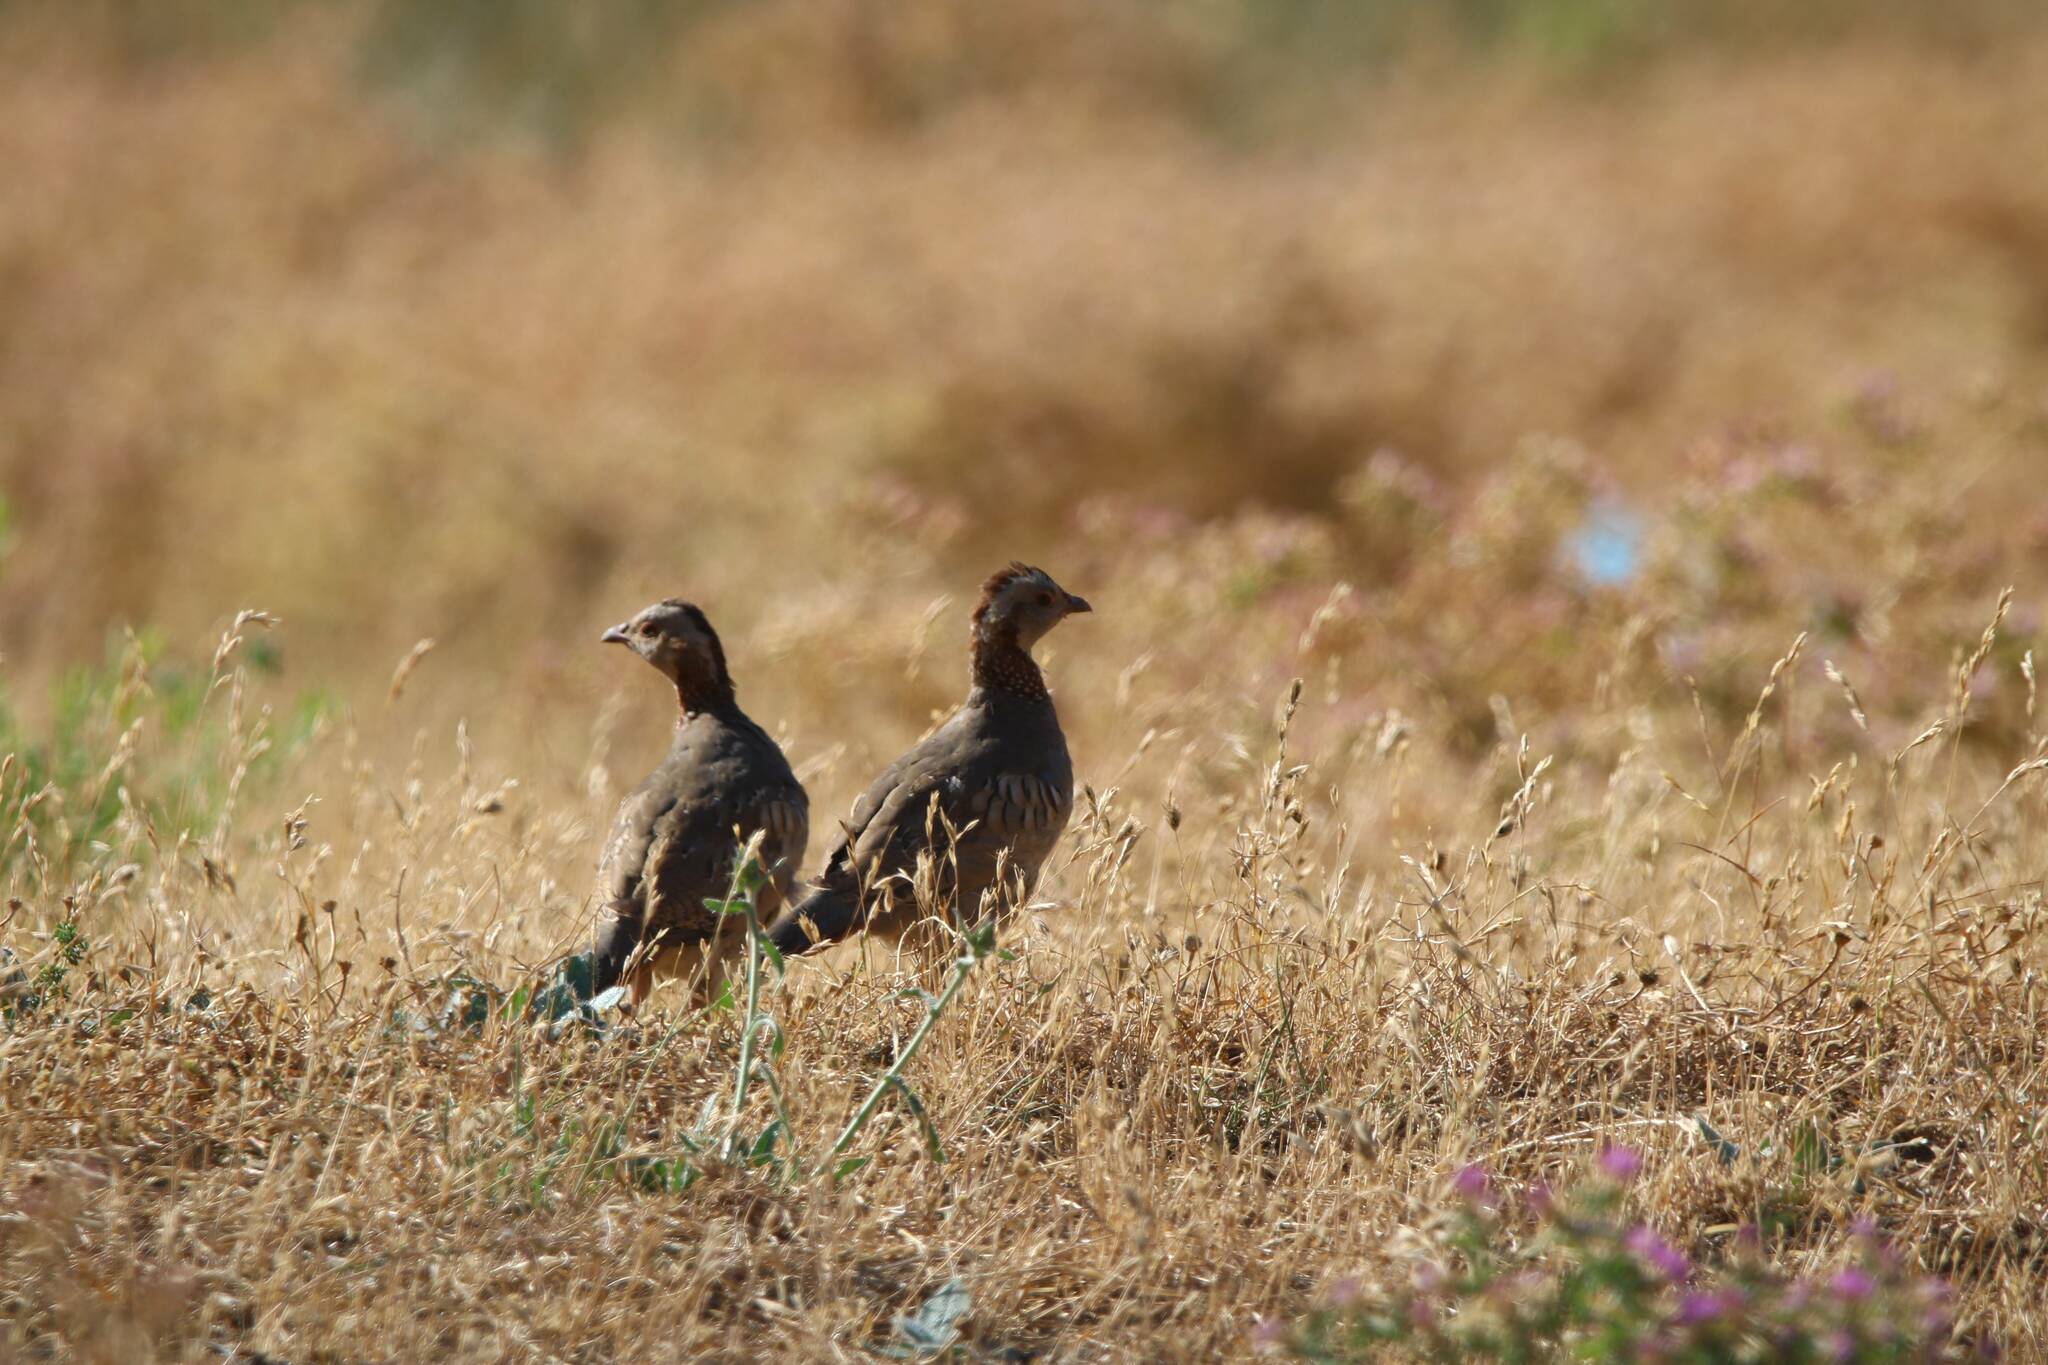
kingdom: Animalia
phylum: Chordata
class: Aves
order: Galliformes
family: Phasianidae
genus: Alectoris
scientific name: Alectoris barbara
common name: Barbary partridge
